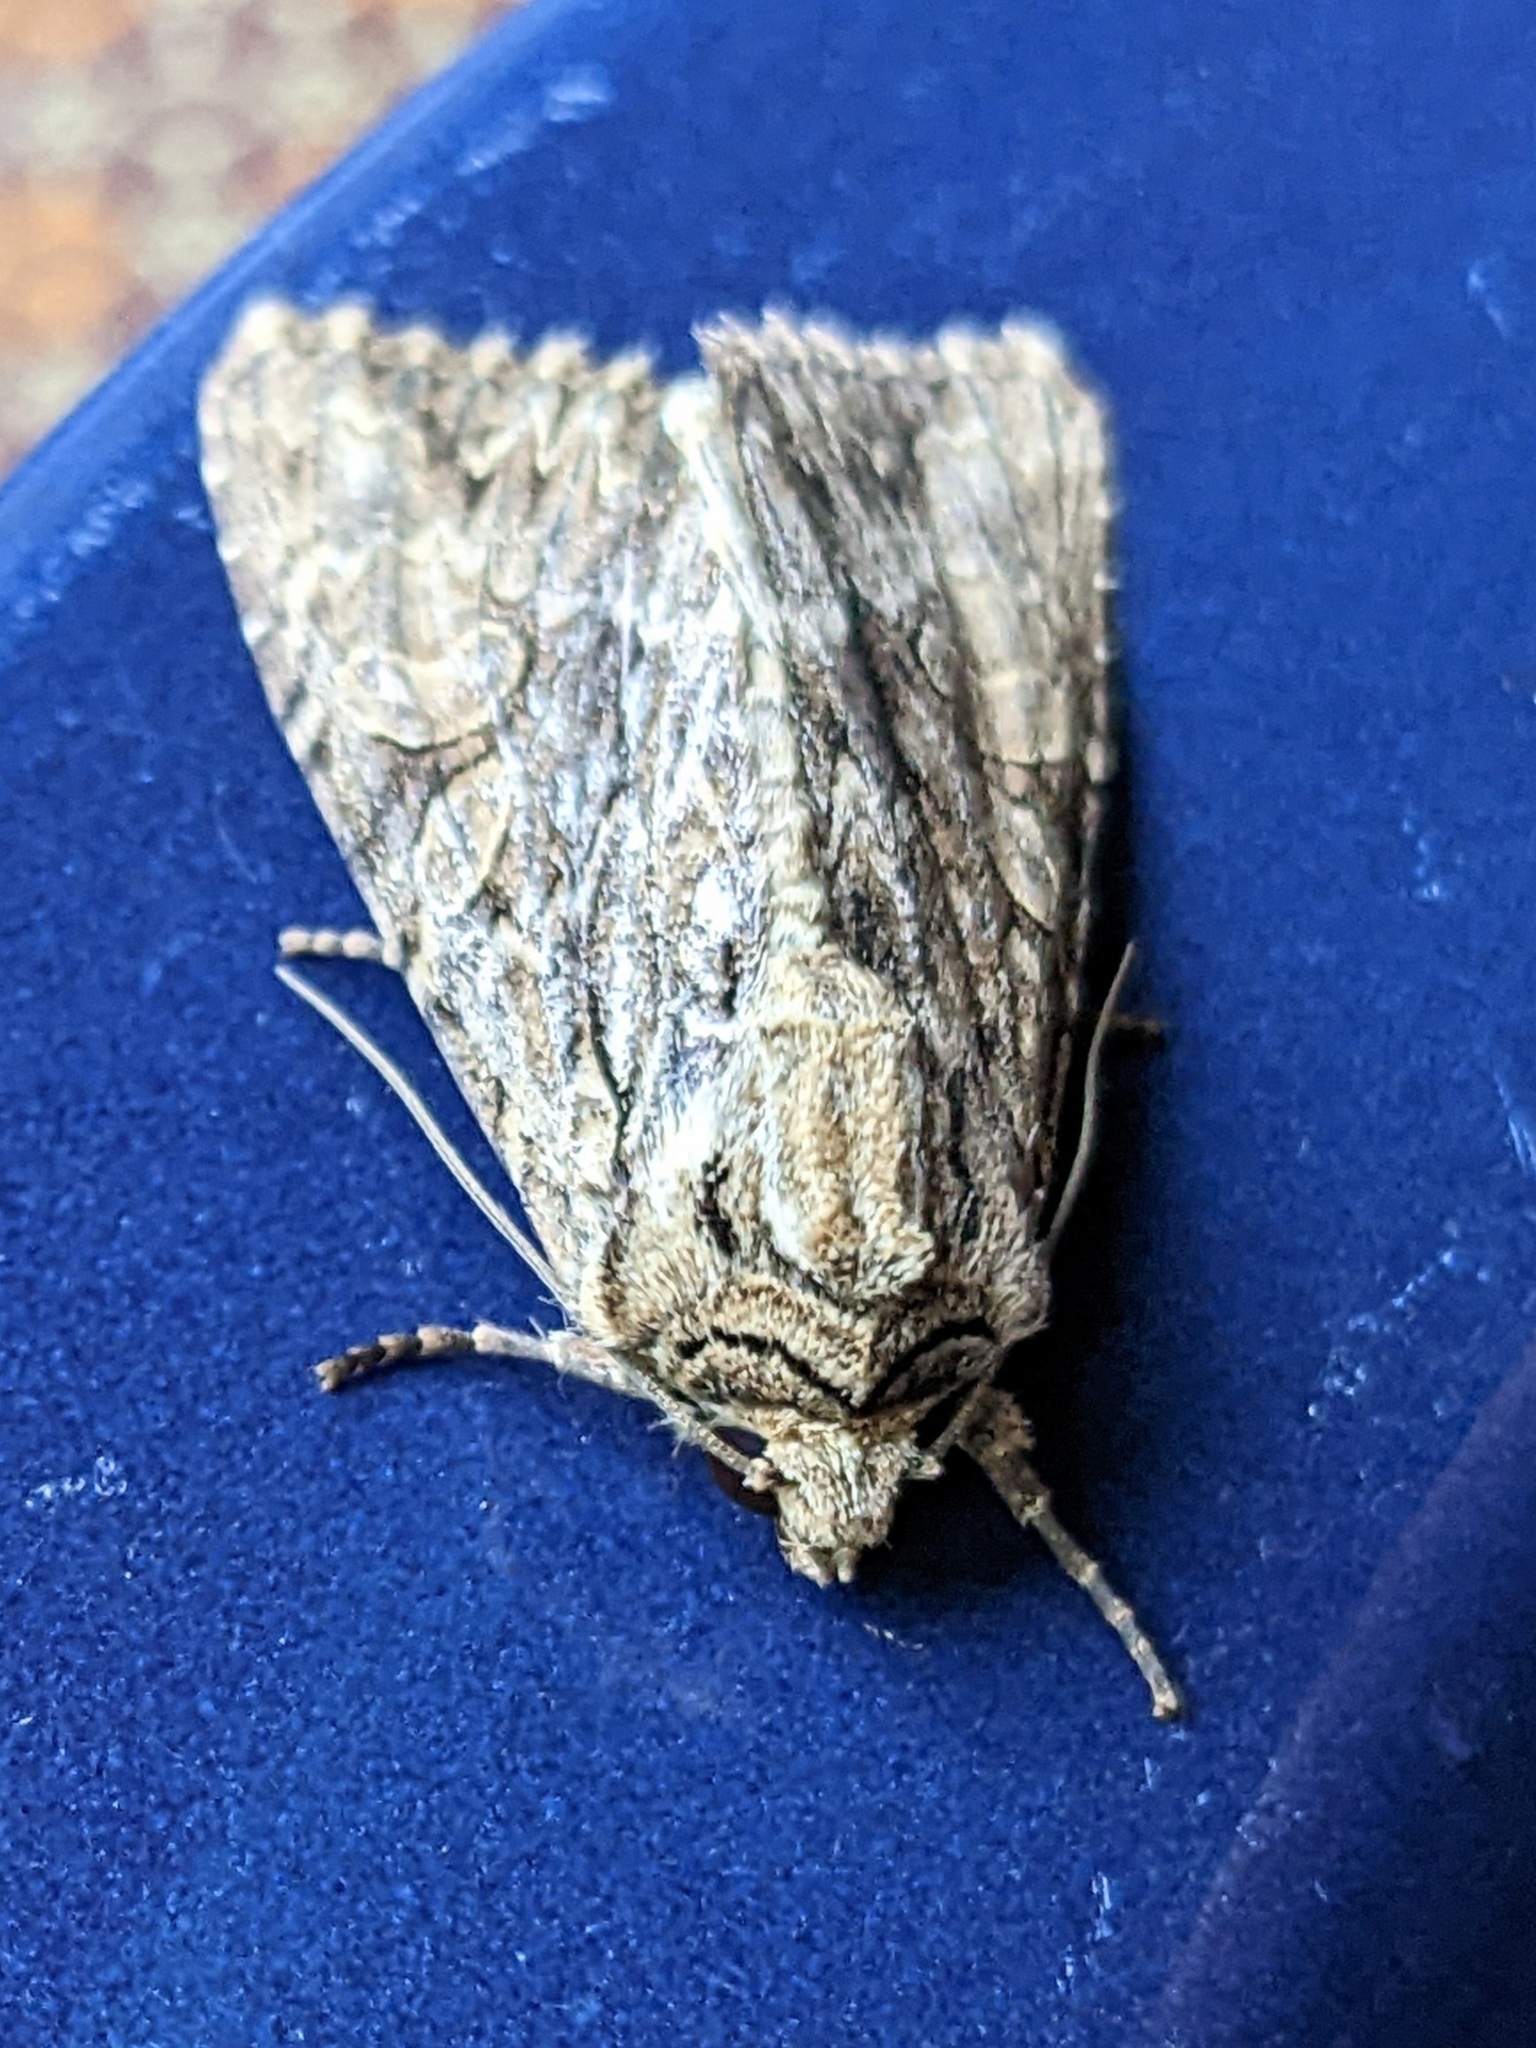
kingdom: Animalia
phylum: Arthropoda
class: Insecta
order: Lepidoptera
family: Noctuidae
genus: Apamea
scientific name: Apamea monoglypha
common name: Dark arches
